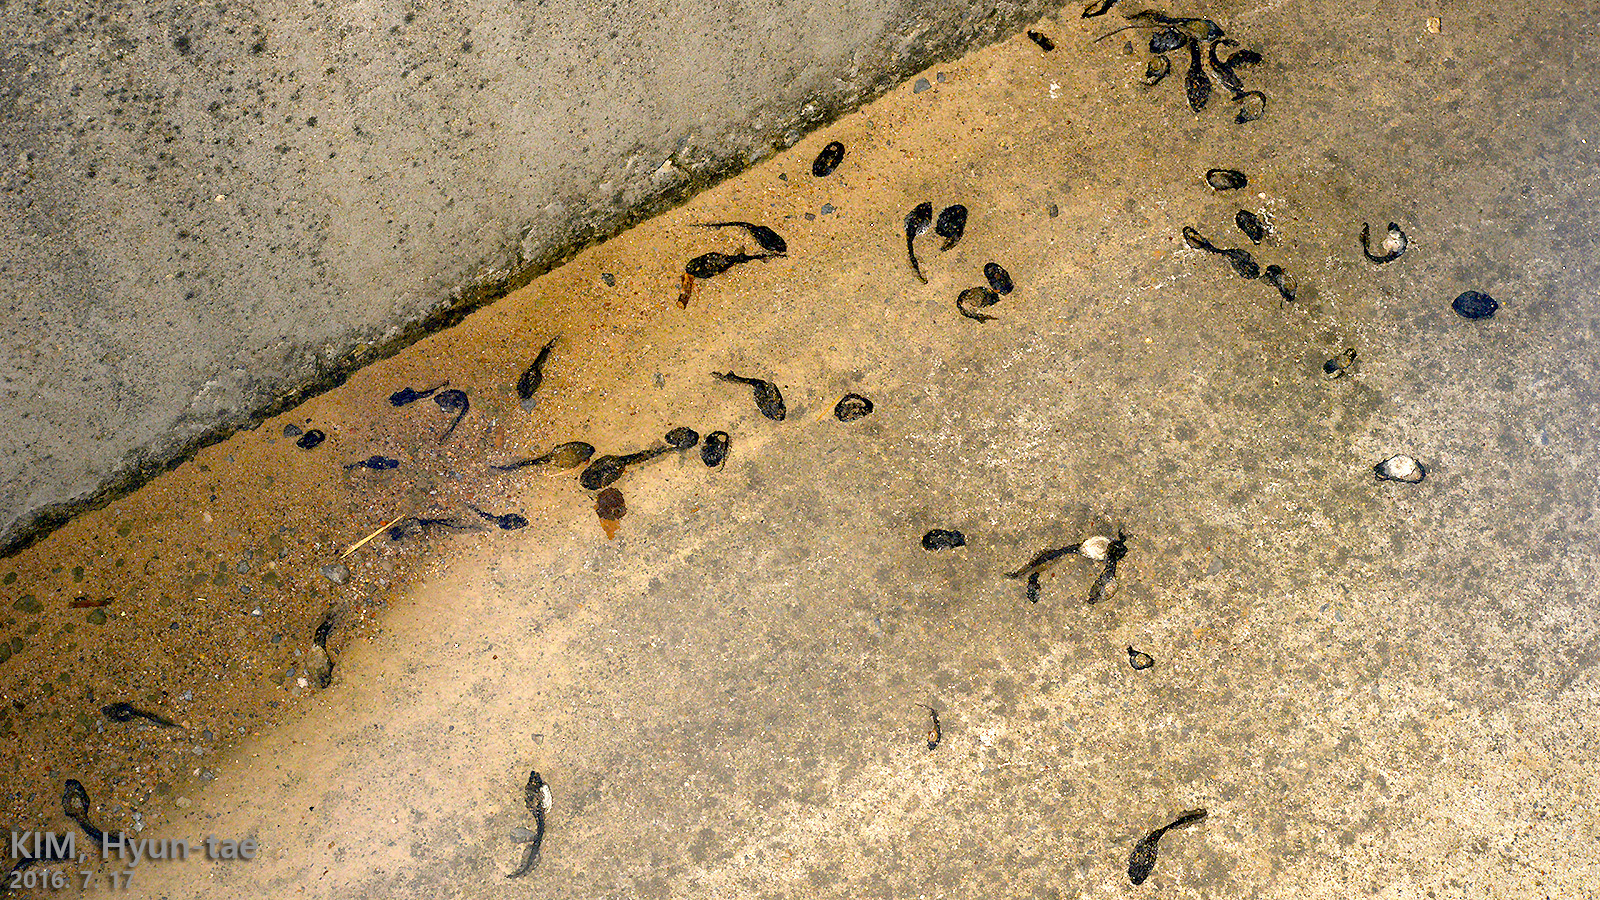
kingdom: Animalia
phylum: Chordata
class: Amphibia
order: Anura
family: Ranidae
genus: Lithobates
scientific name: Lithobates catesbeianus
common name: American bullfrog
